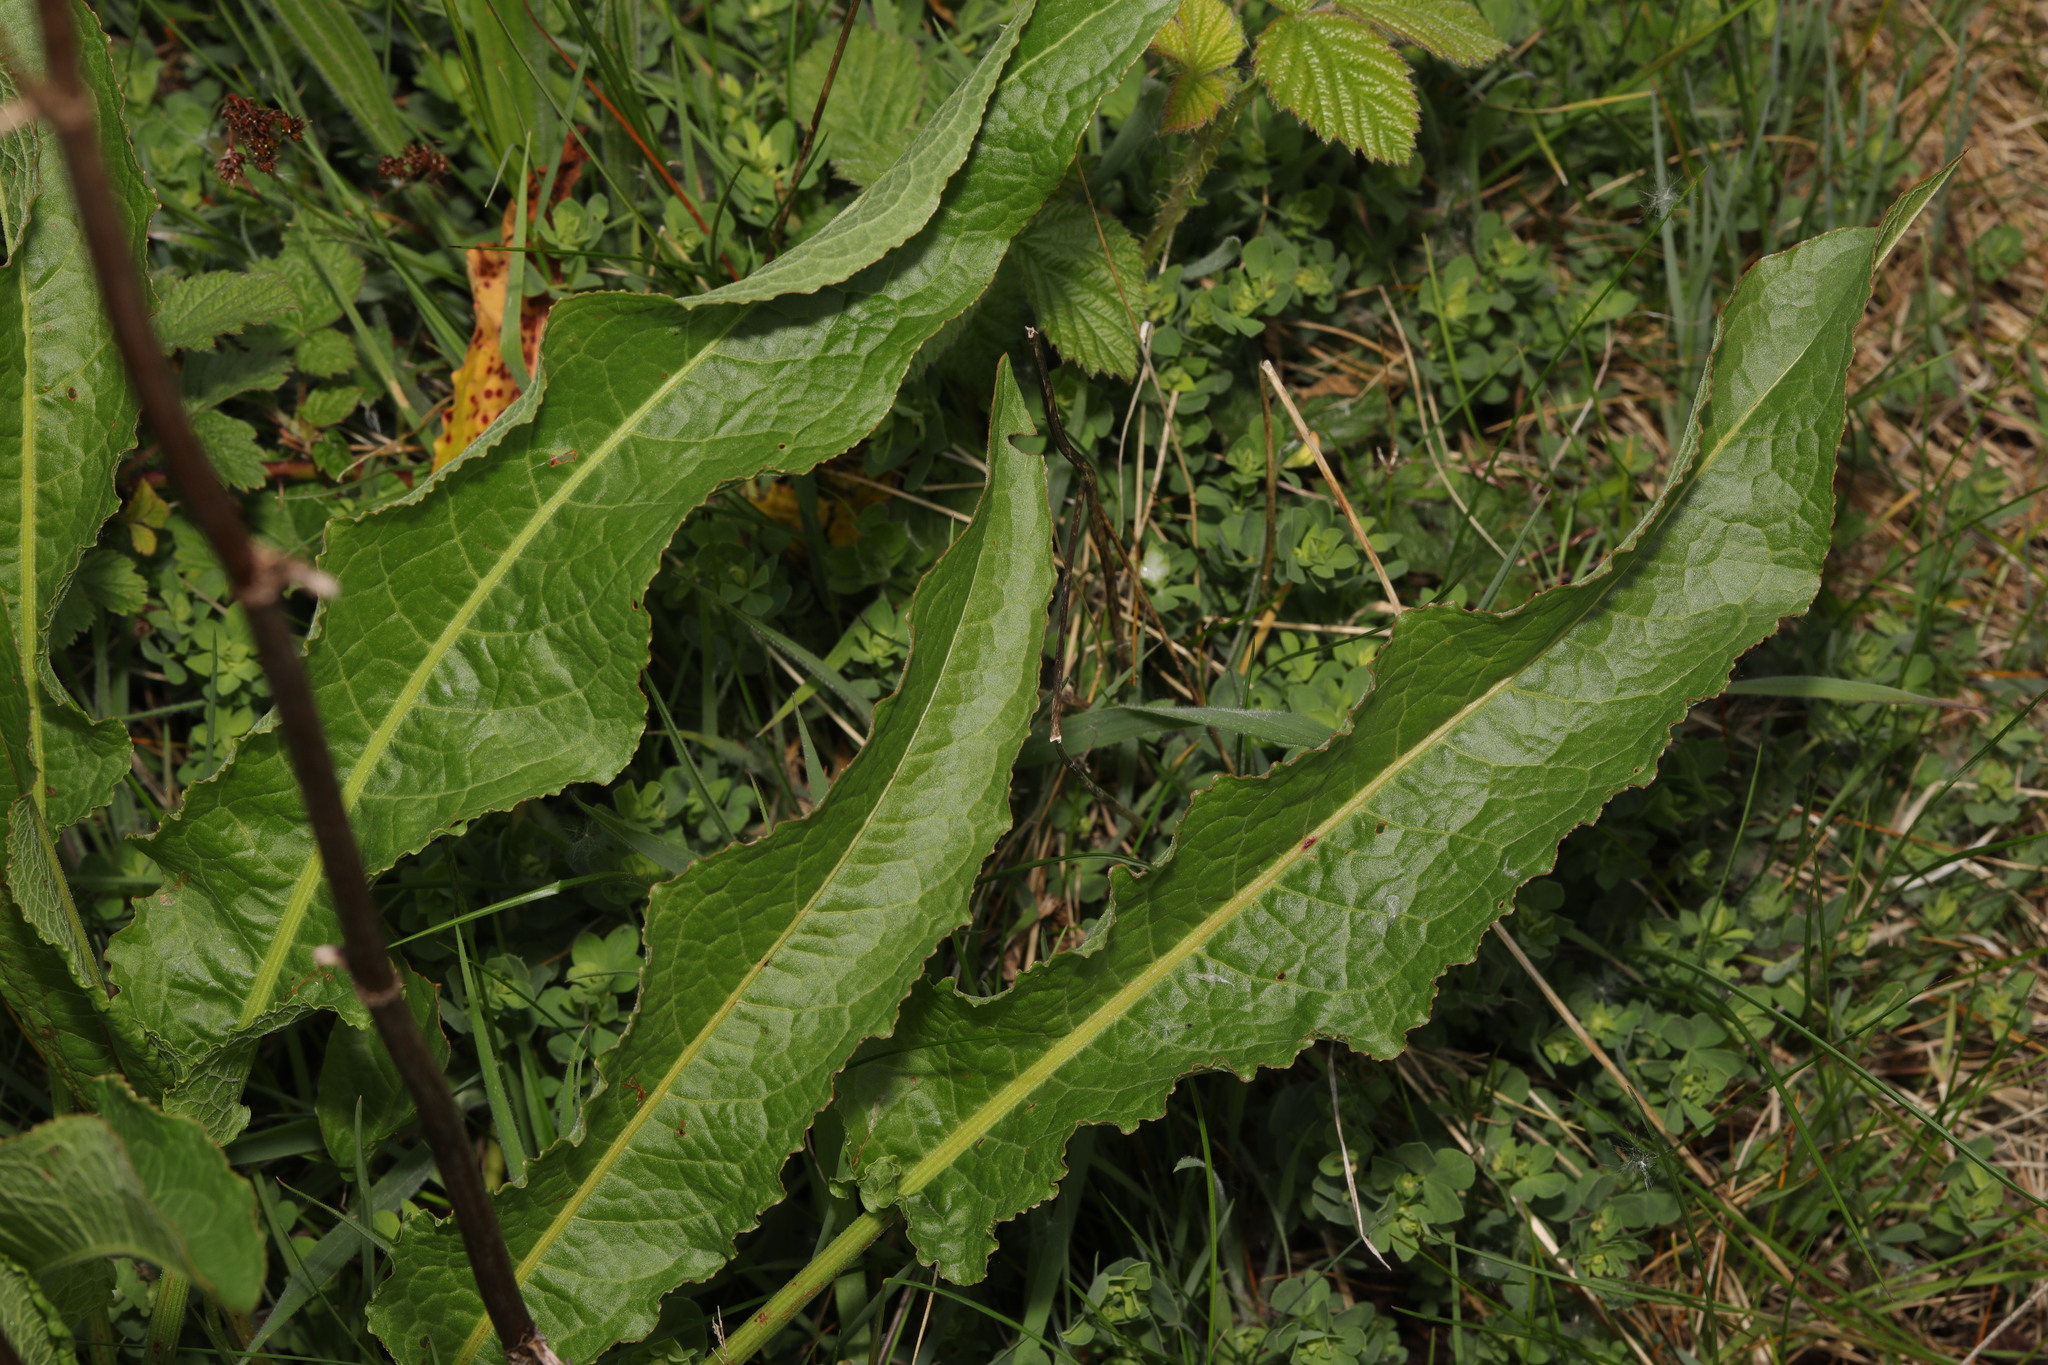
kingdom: Plantae
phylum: Tracheophyta
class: Magnoliopsida
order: Caryophyllales
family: Polygonaceae
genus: Rumex
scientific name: Rumex crispus
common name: Curled dock
